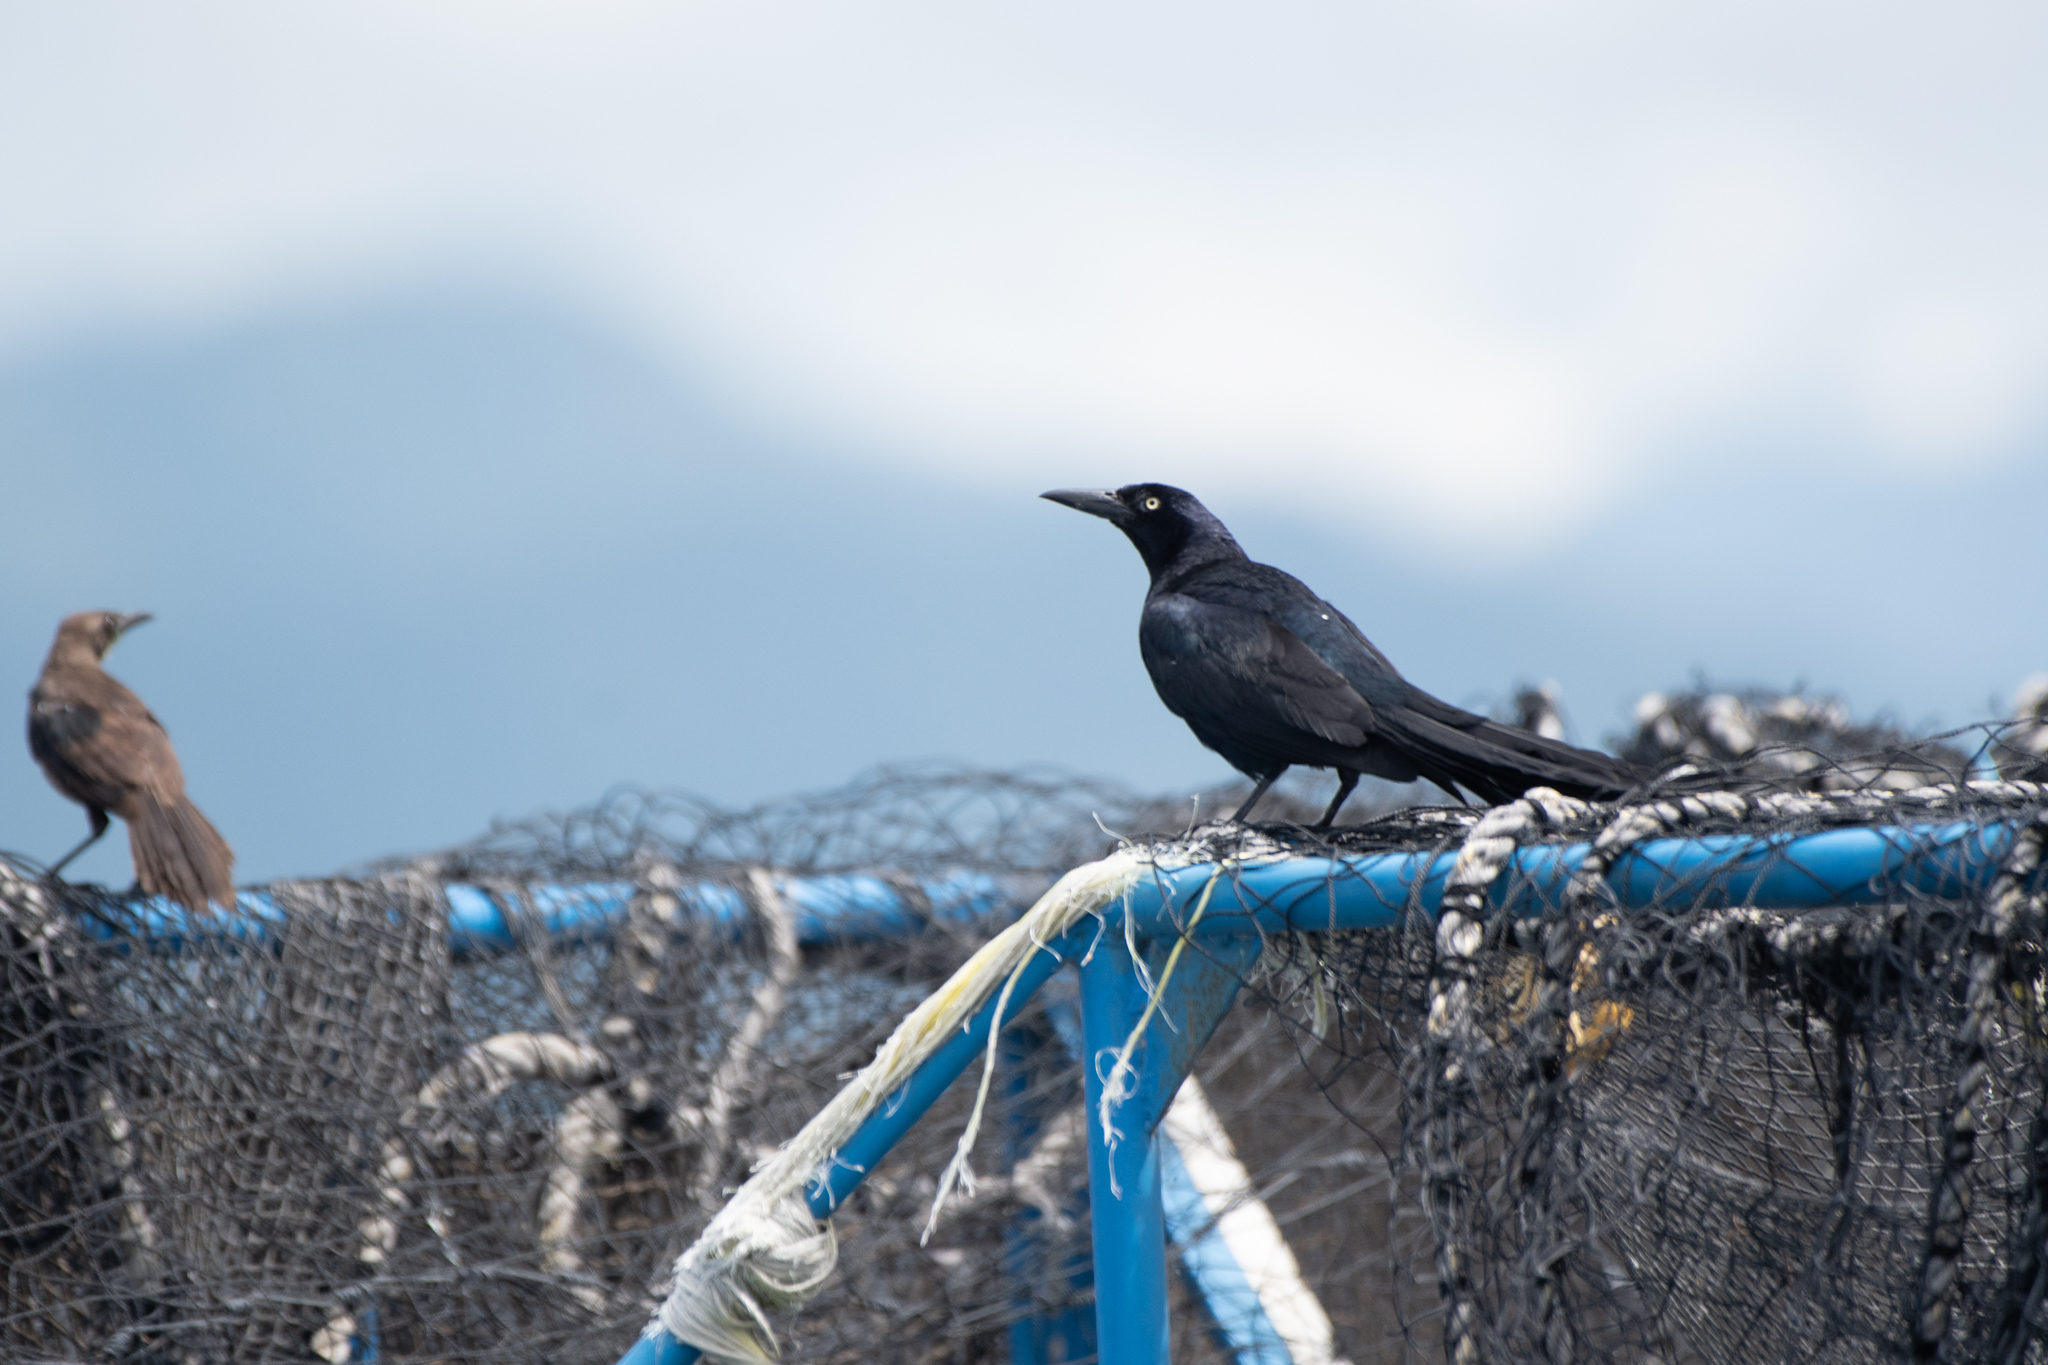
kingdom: Animalia
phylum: Chordata
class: Aves
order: Passeriformes
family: Icteridae
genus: Quiscalus
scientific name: Quiscalus mexicanus
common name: Great-tailed grackle
